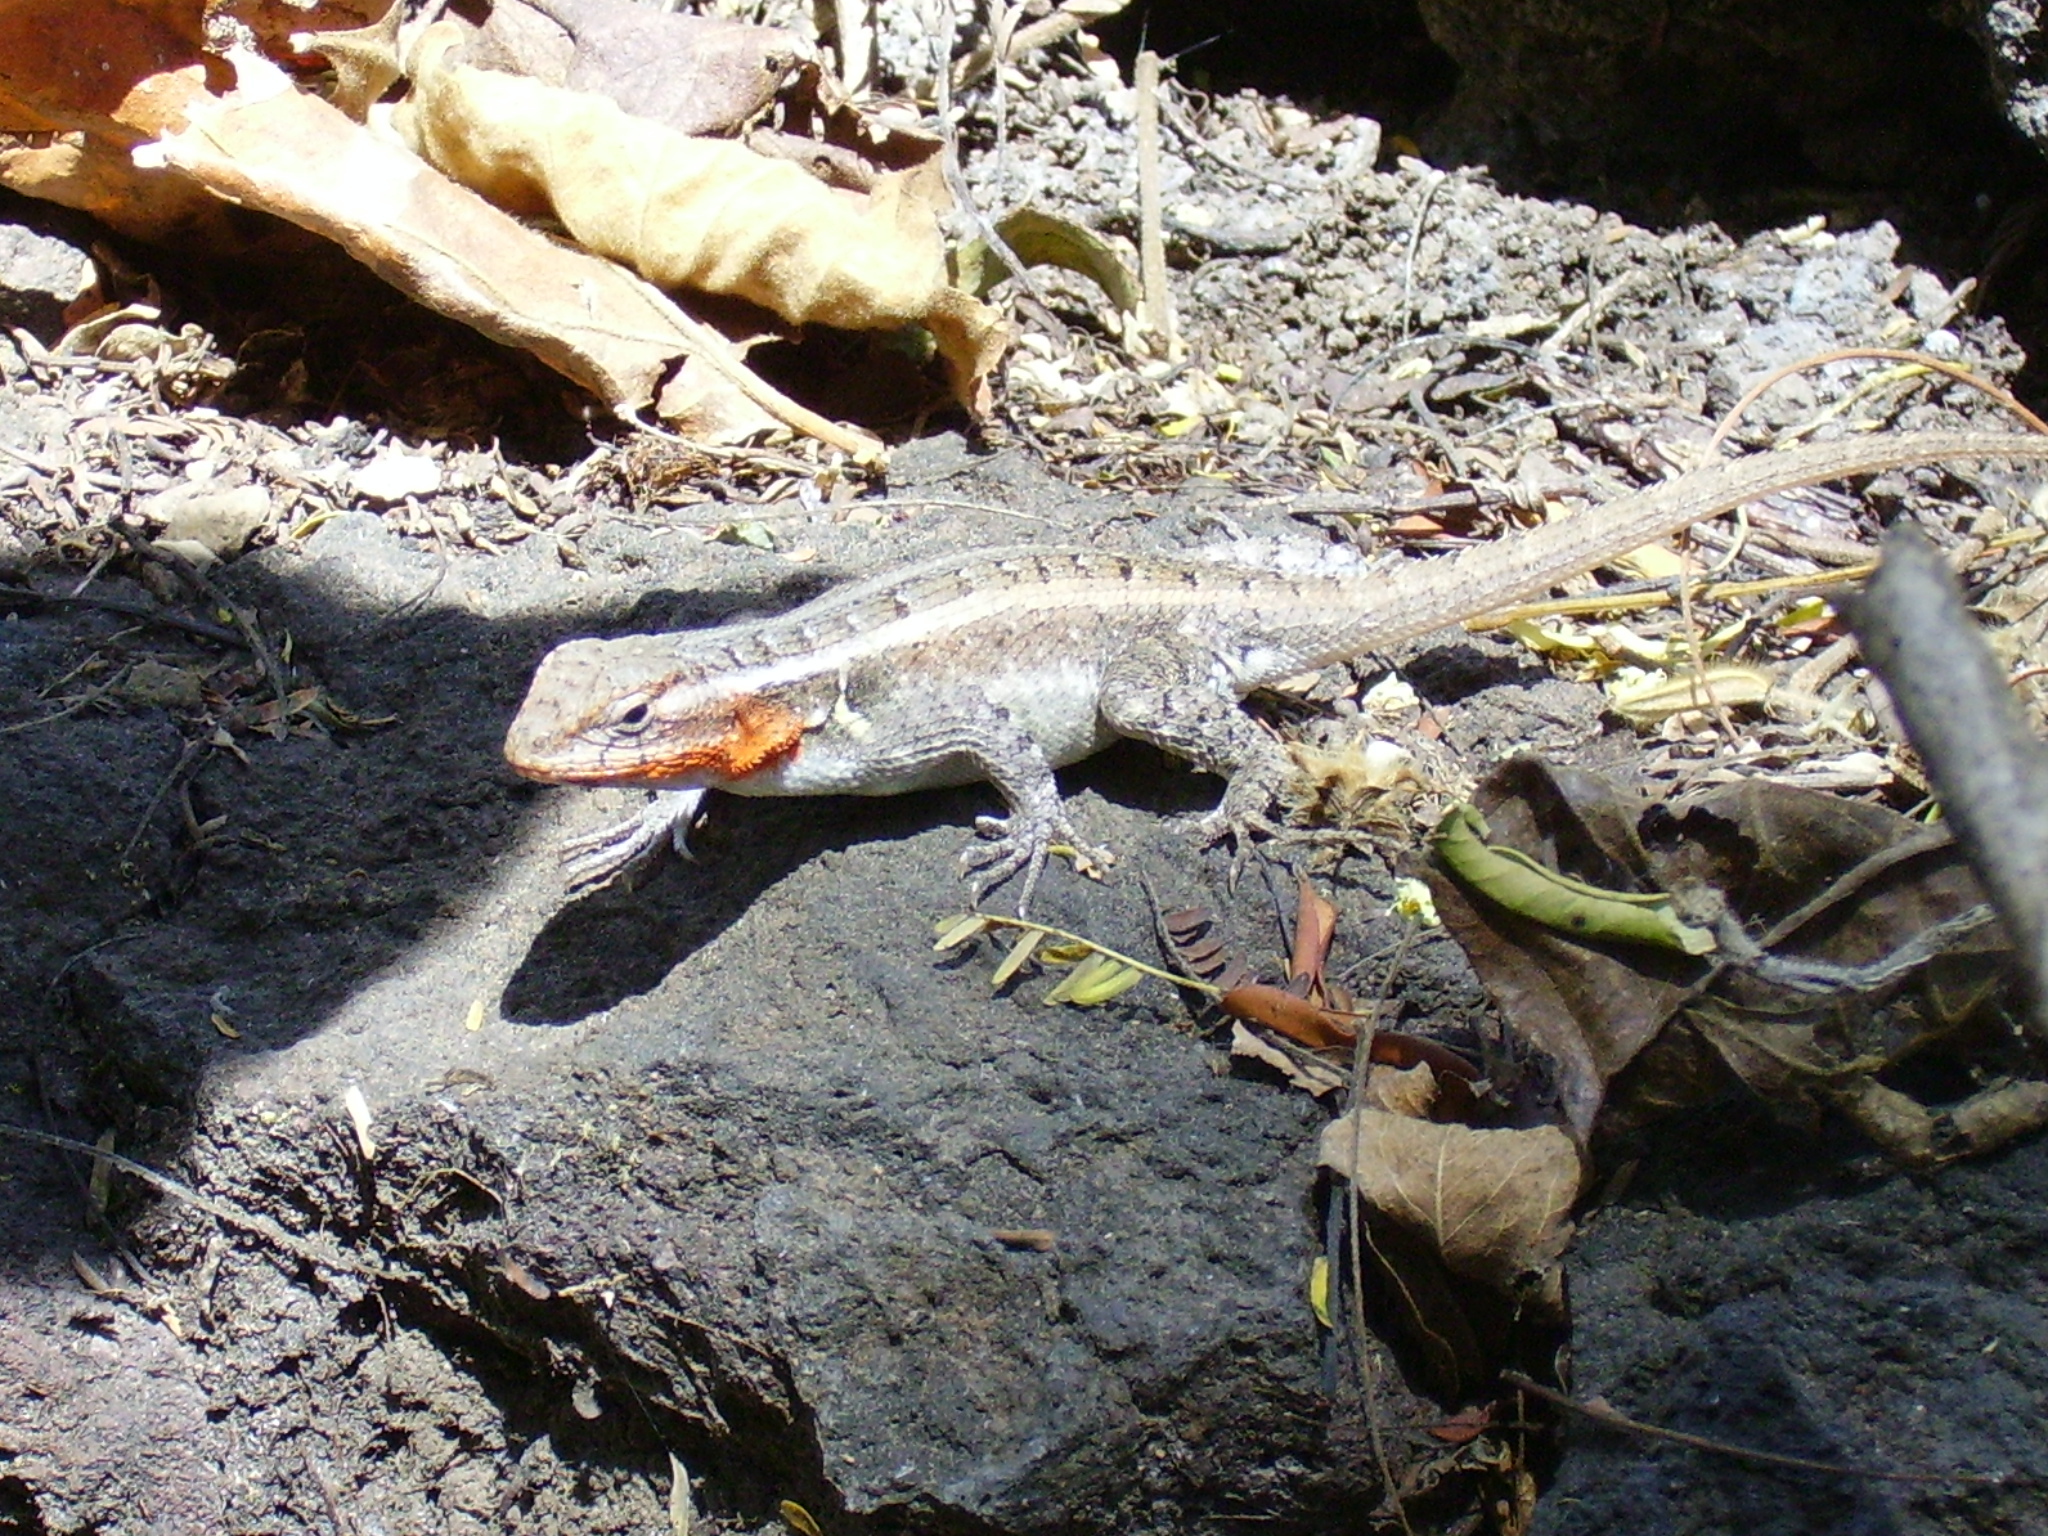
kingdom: Animalia
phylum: Chordata
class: Squamata
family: Phrynosomatidae
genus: Sceloporus
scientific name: Sceloporus variabilis
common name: Rosebelly lizard
